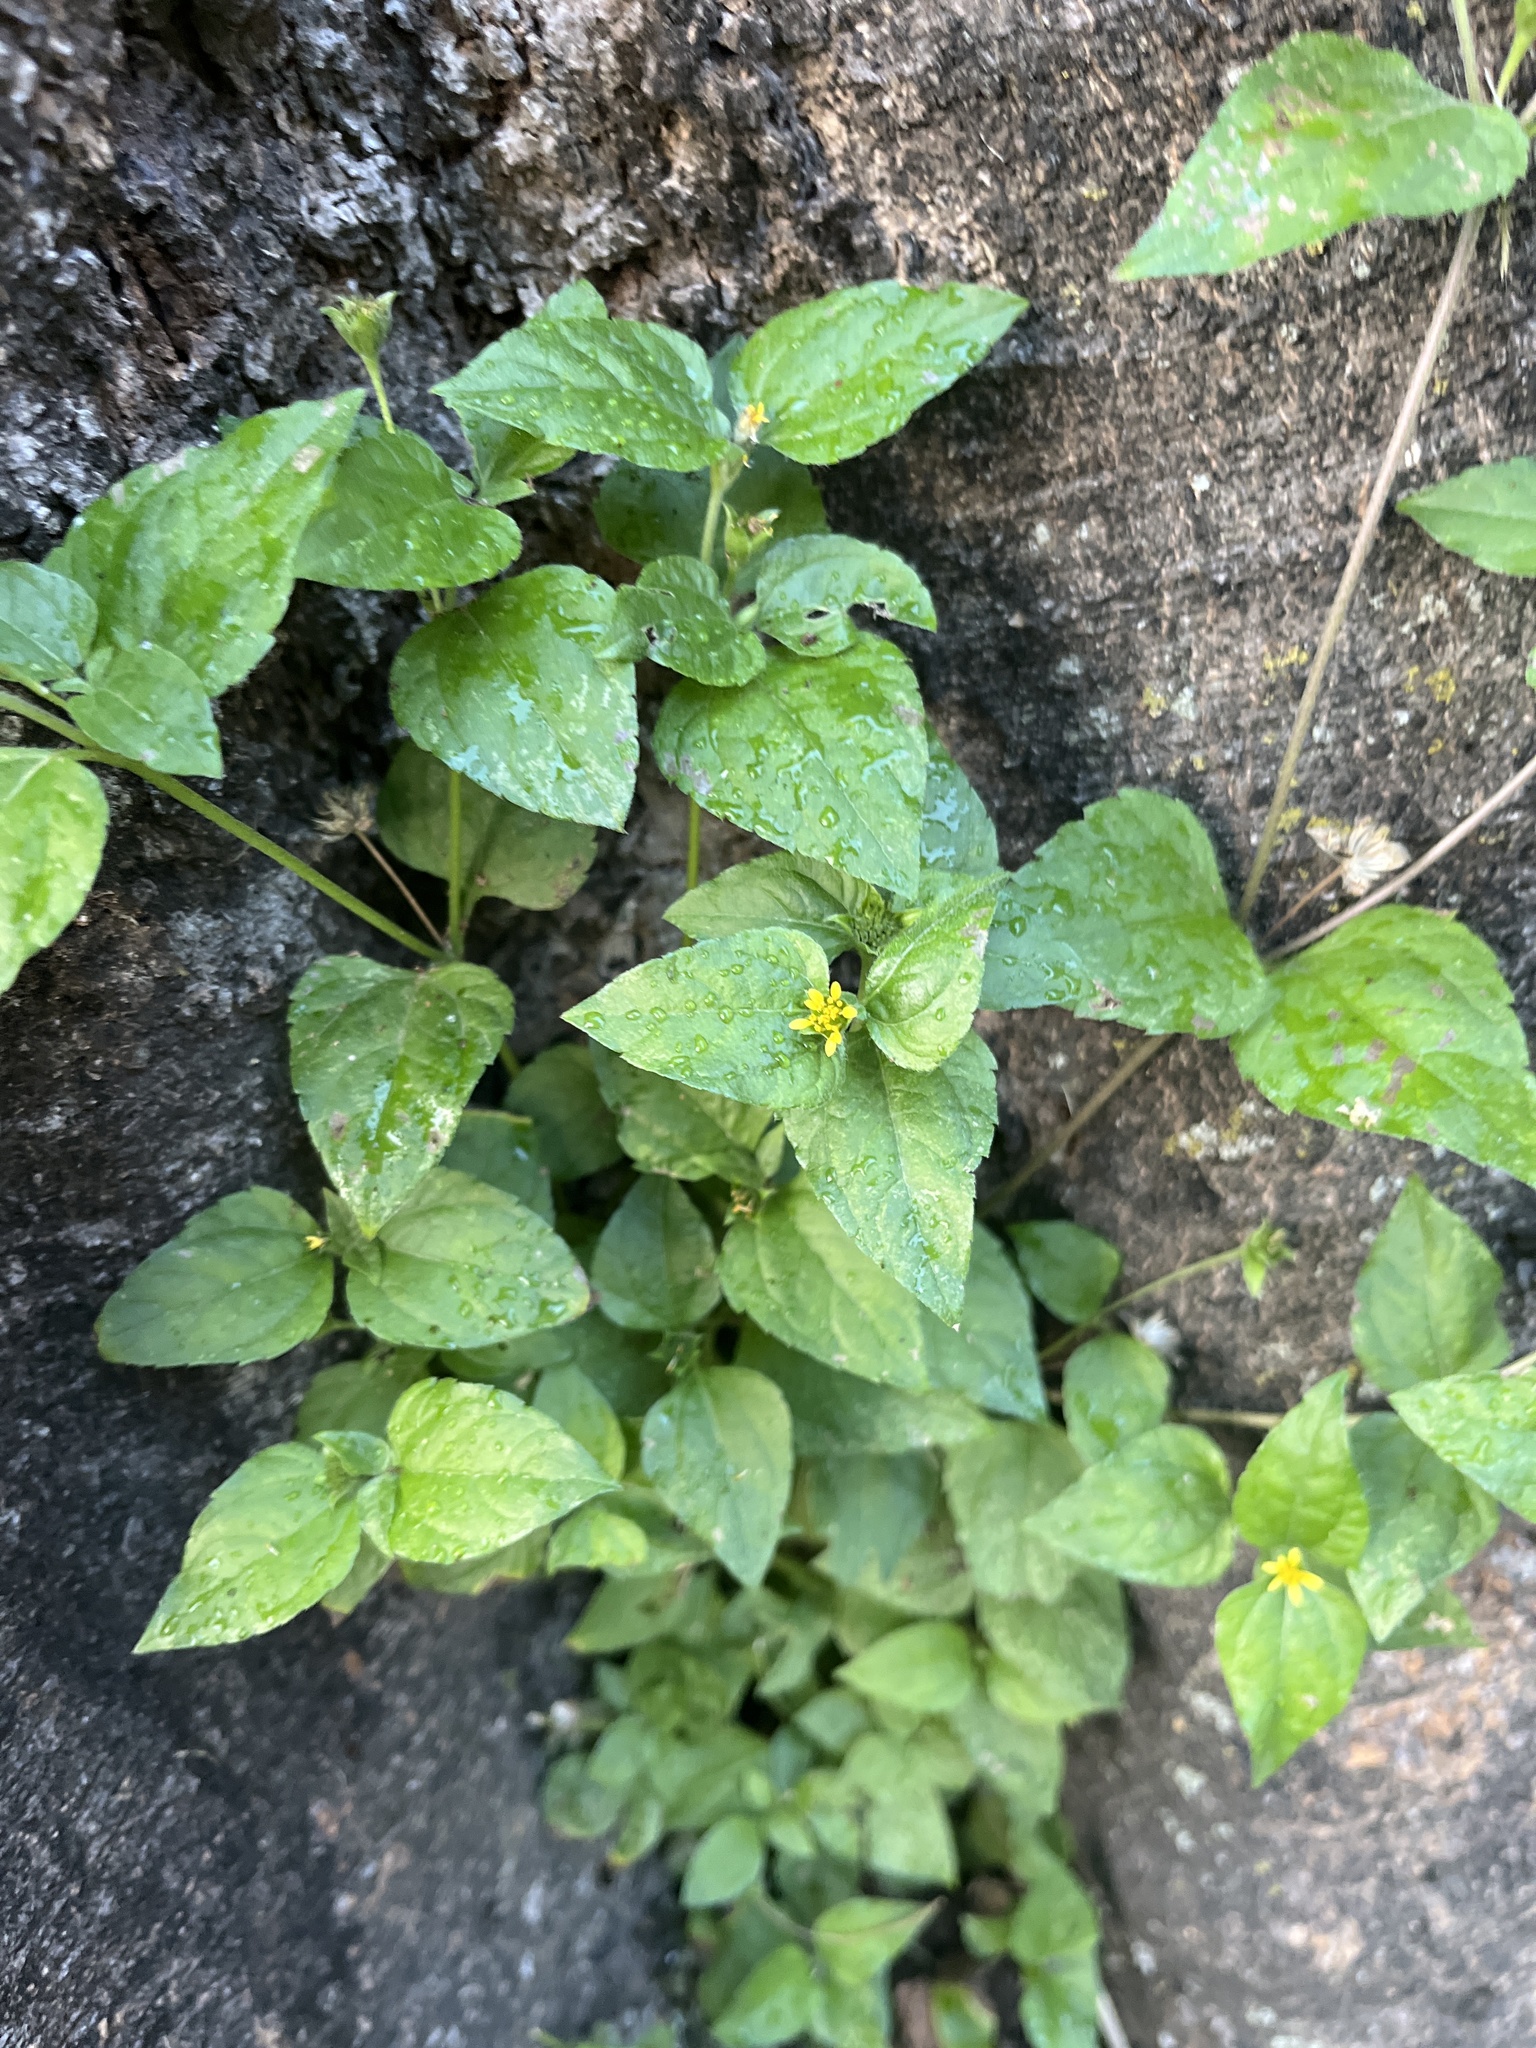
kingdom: Plantae
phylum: Tracheophyta
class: Magnoliopsida
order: Asterales
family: Asteraceae
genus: Calyptocarpus
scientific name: Calyptocarpus vialis
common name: Straggler daisy
